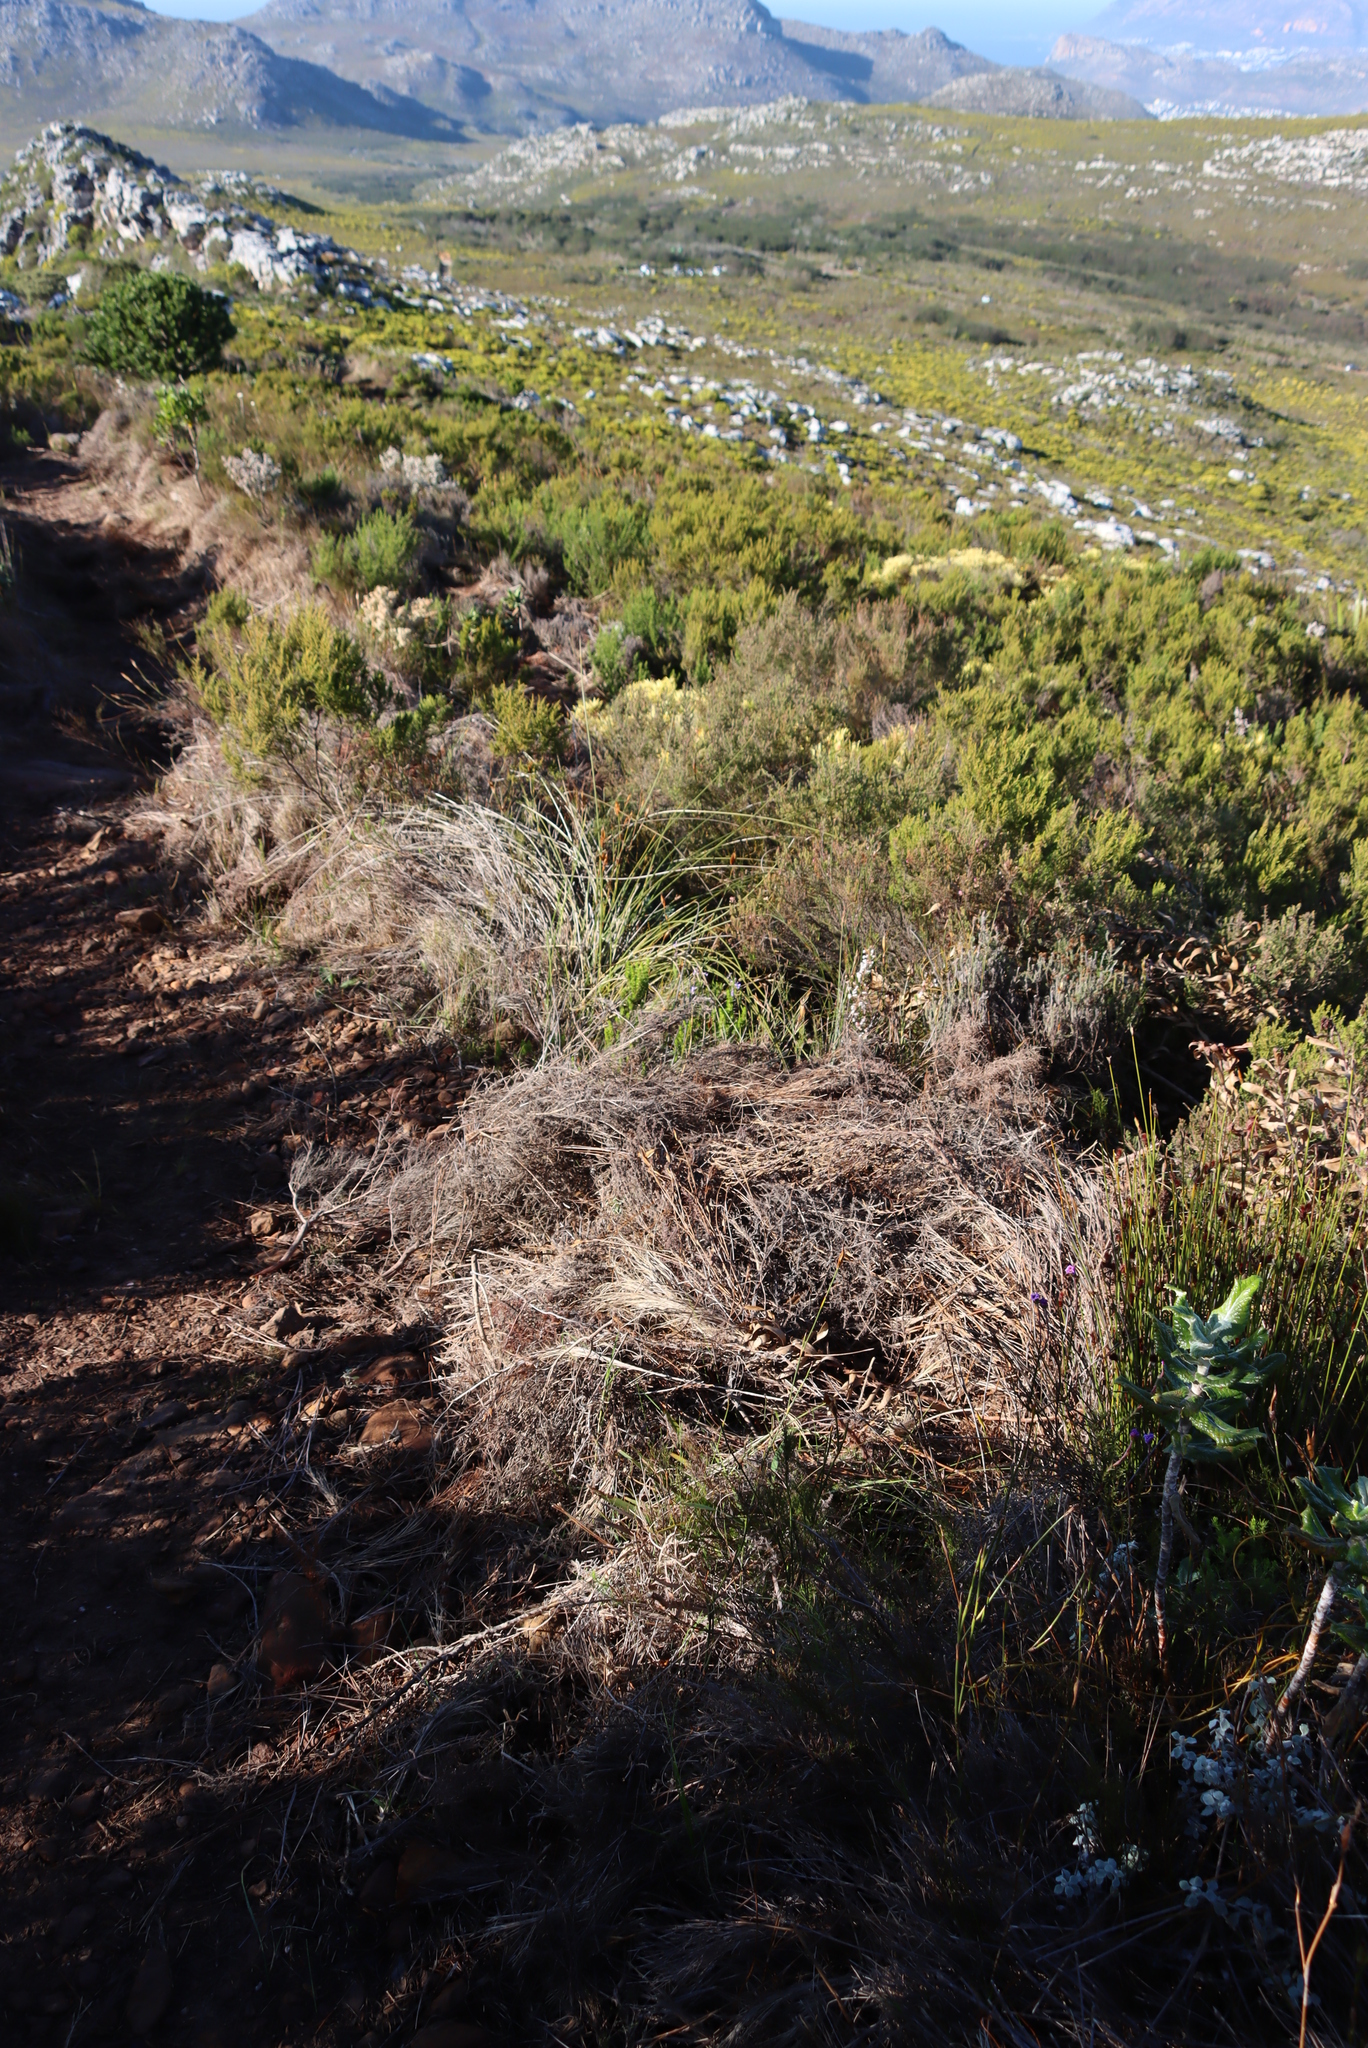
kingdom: Plantae
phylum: Tracheophyta
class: Magnoliopsida
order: Proteales
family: Proteaceae
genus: Leucadendron
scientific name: Leucadendron salignum
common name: Common sunshine conebush
